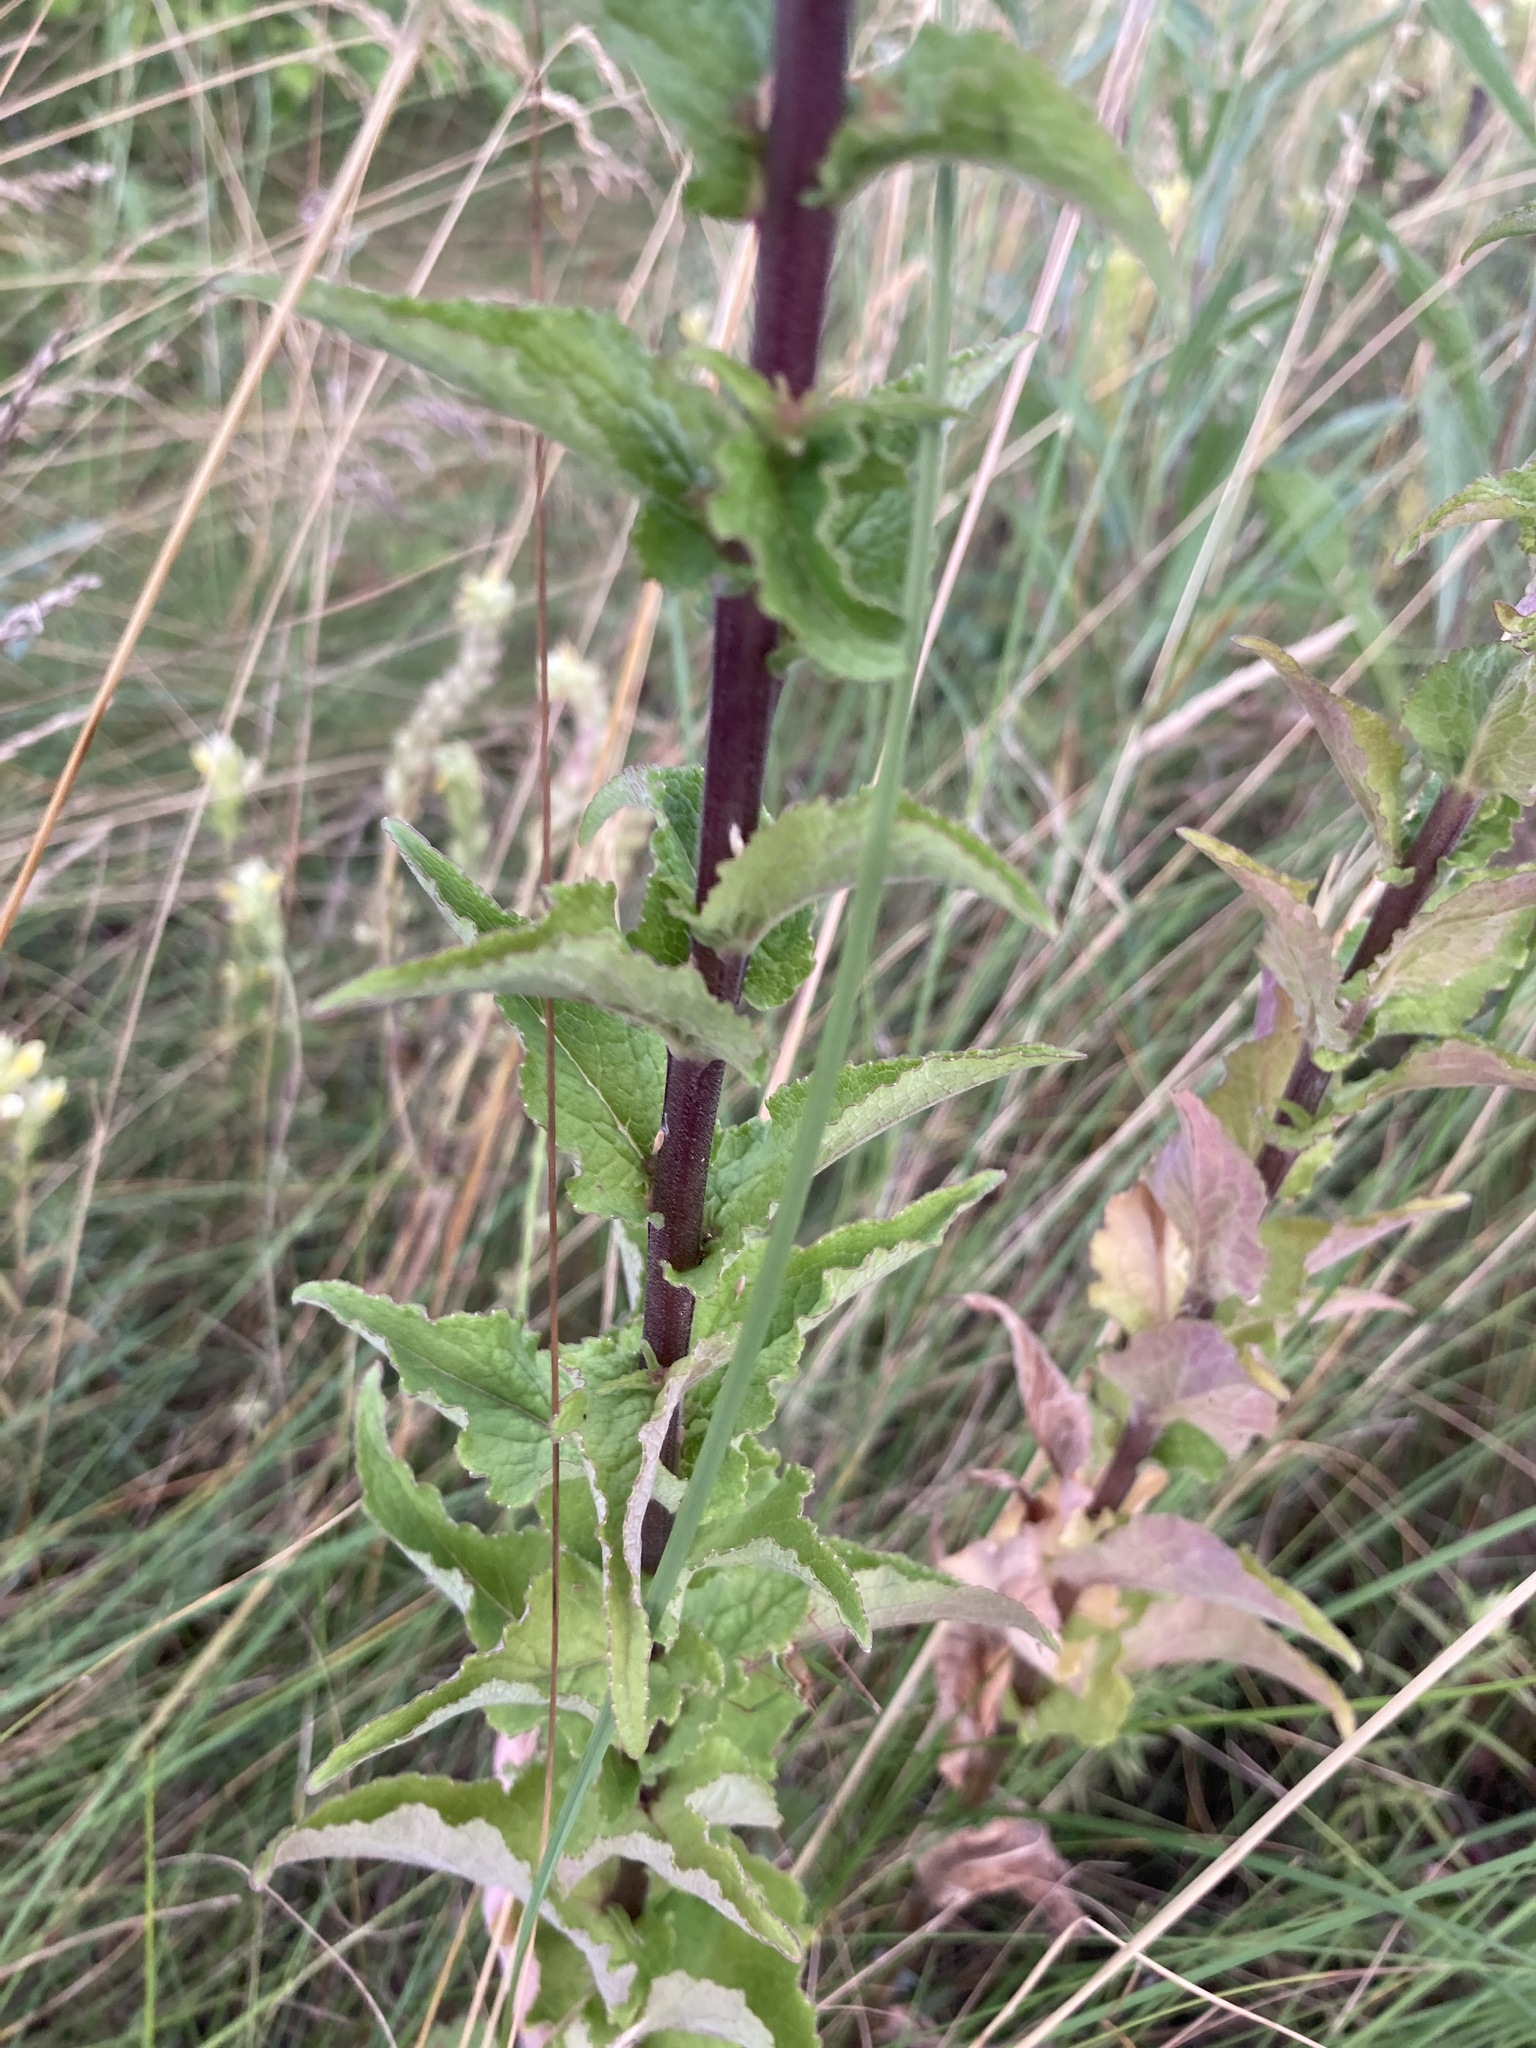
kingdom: Plantae
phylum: Tracheophyta
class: Magnoliopsida
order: Asterales
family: Campanulaceae
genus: Campanula
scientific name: Campanula bononiensis
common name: Pale bellflower
